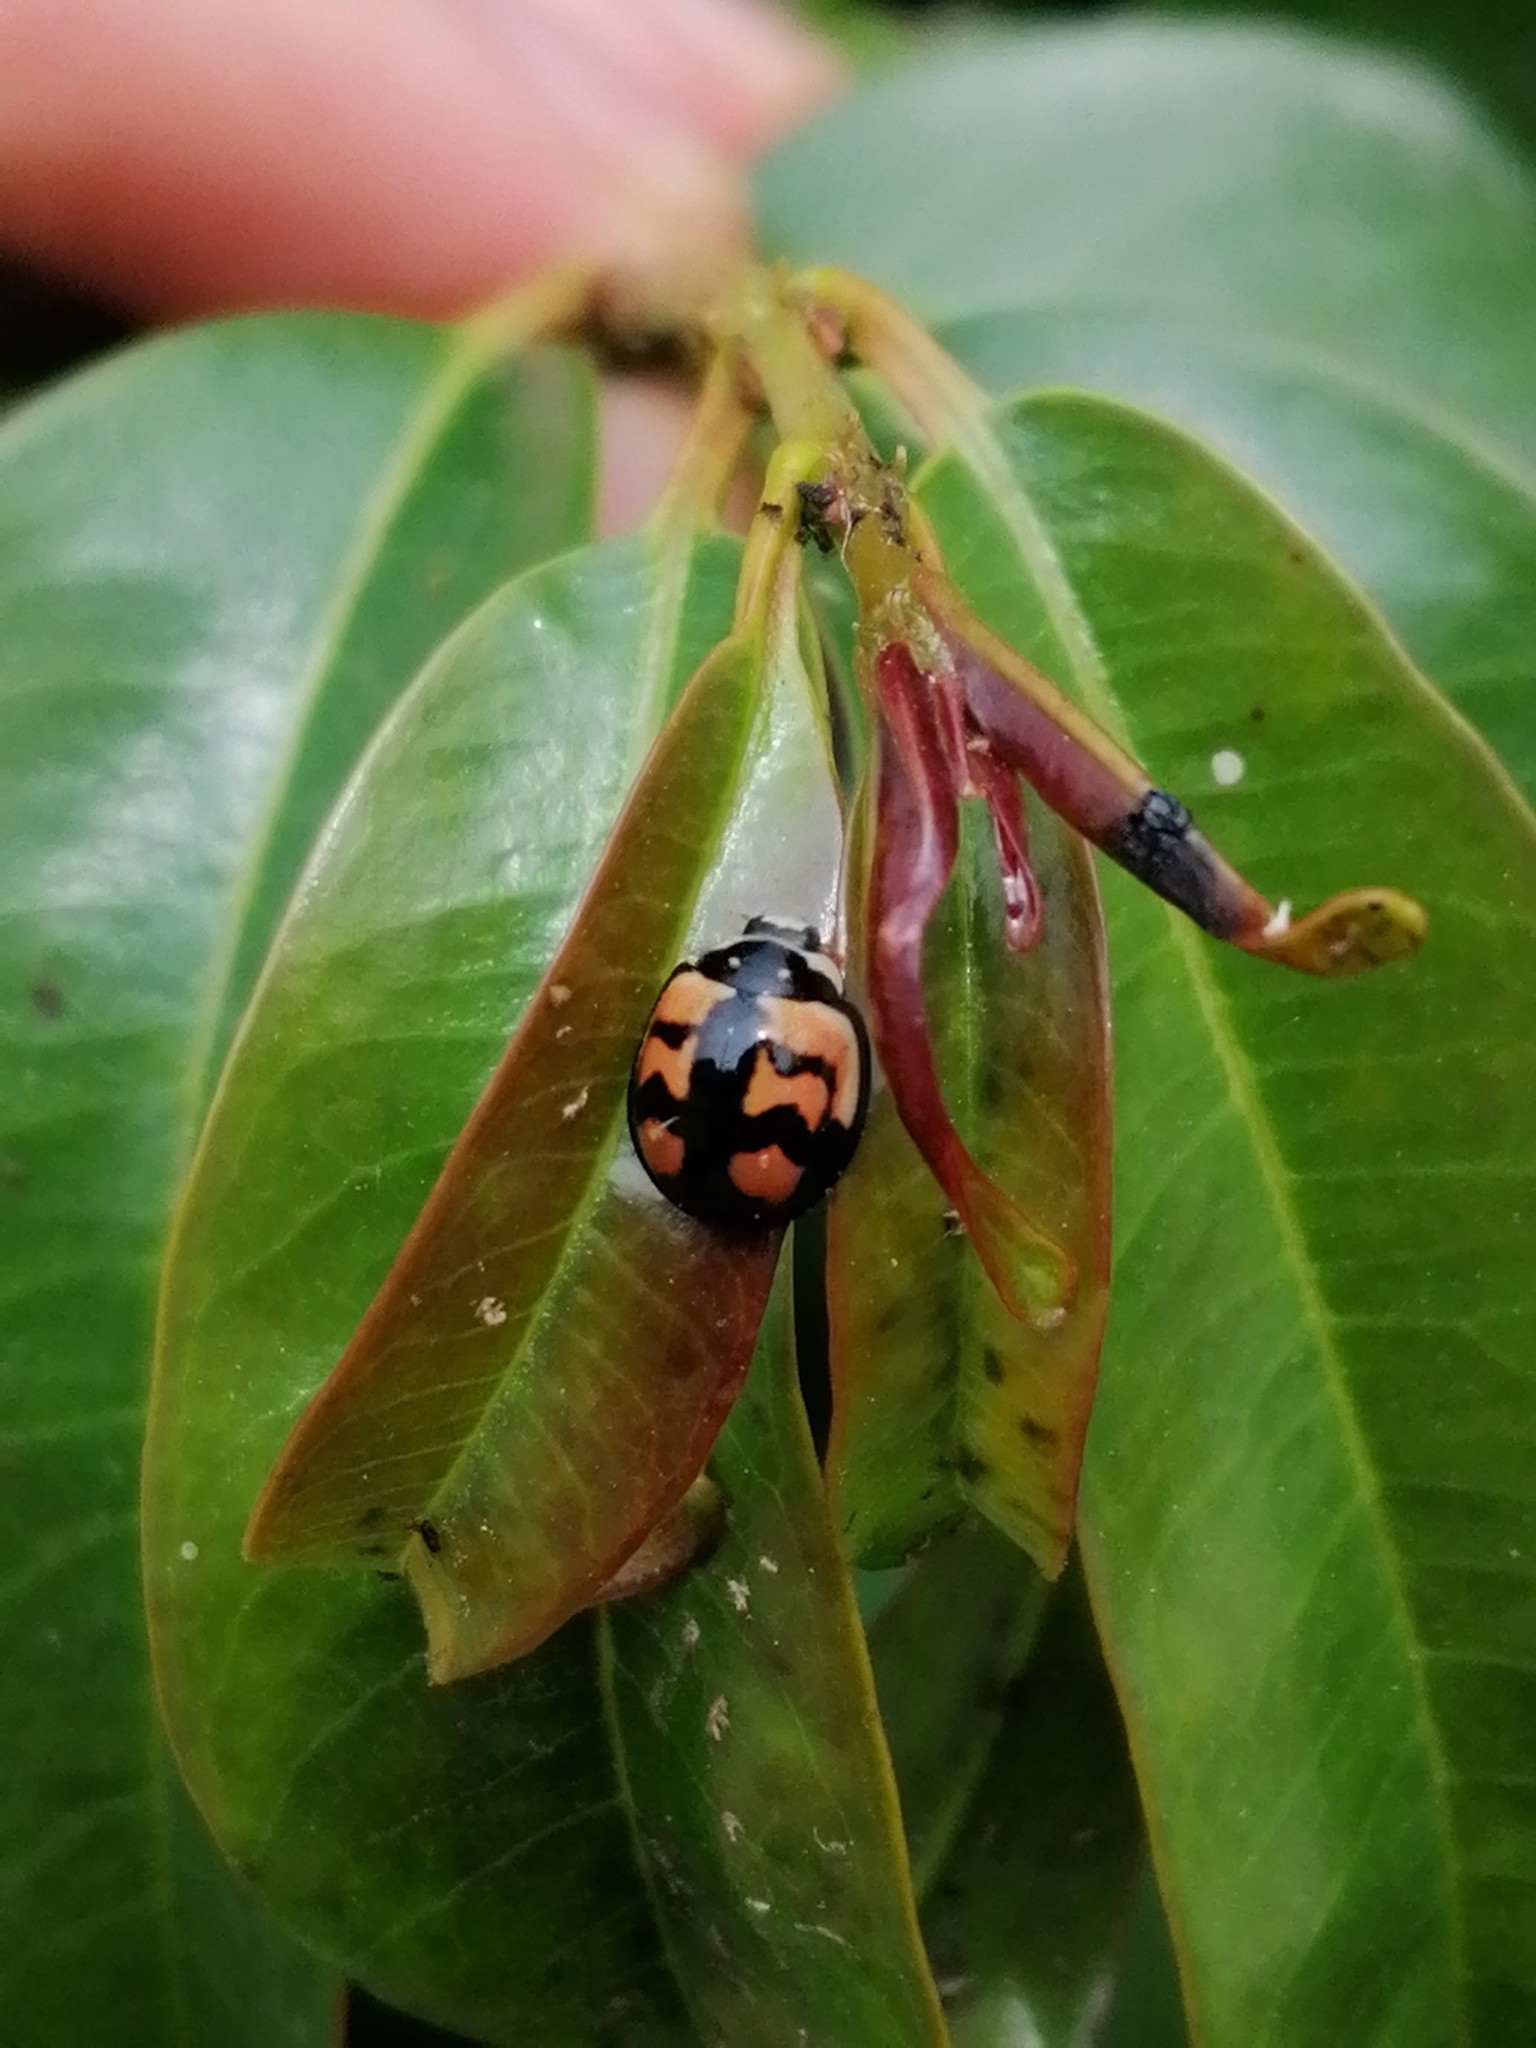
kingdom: Animalia
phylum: Arthropoda
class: Insecta
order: Coleoptera
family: Coccinellidae
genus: Cheilomenes
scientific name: Cheilomenes sexmaculata
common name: Ladybird beetle
